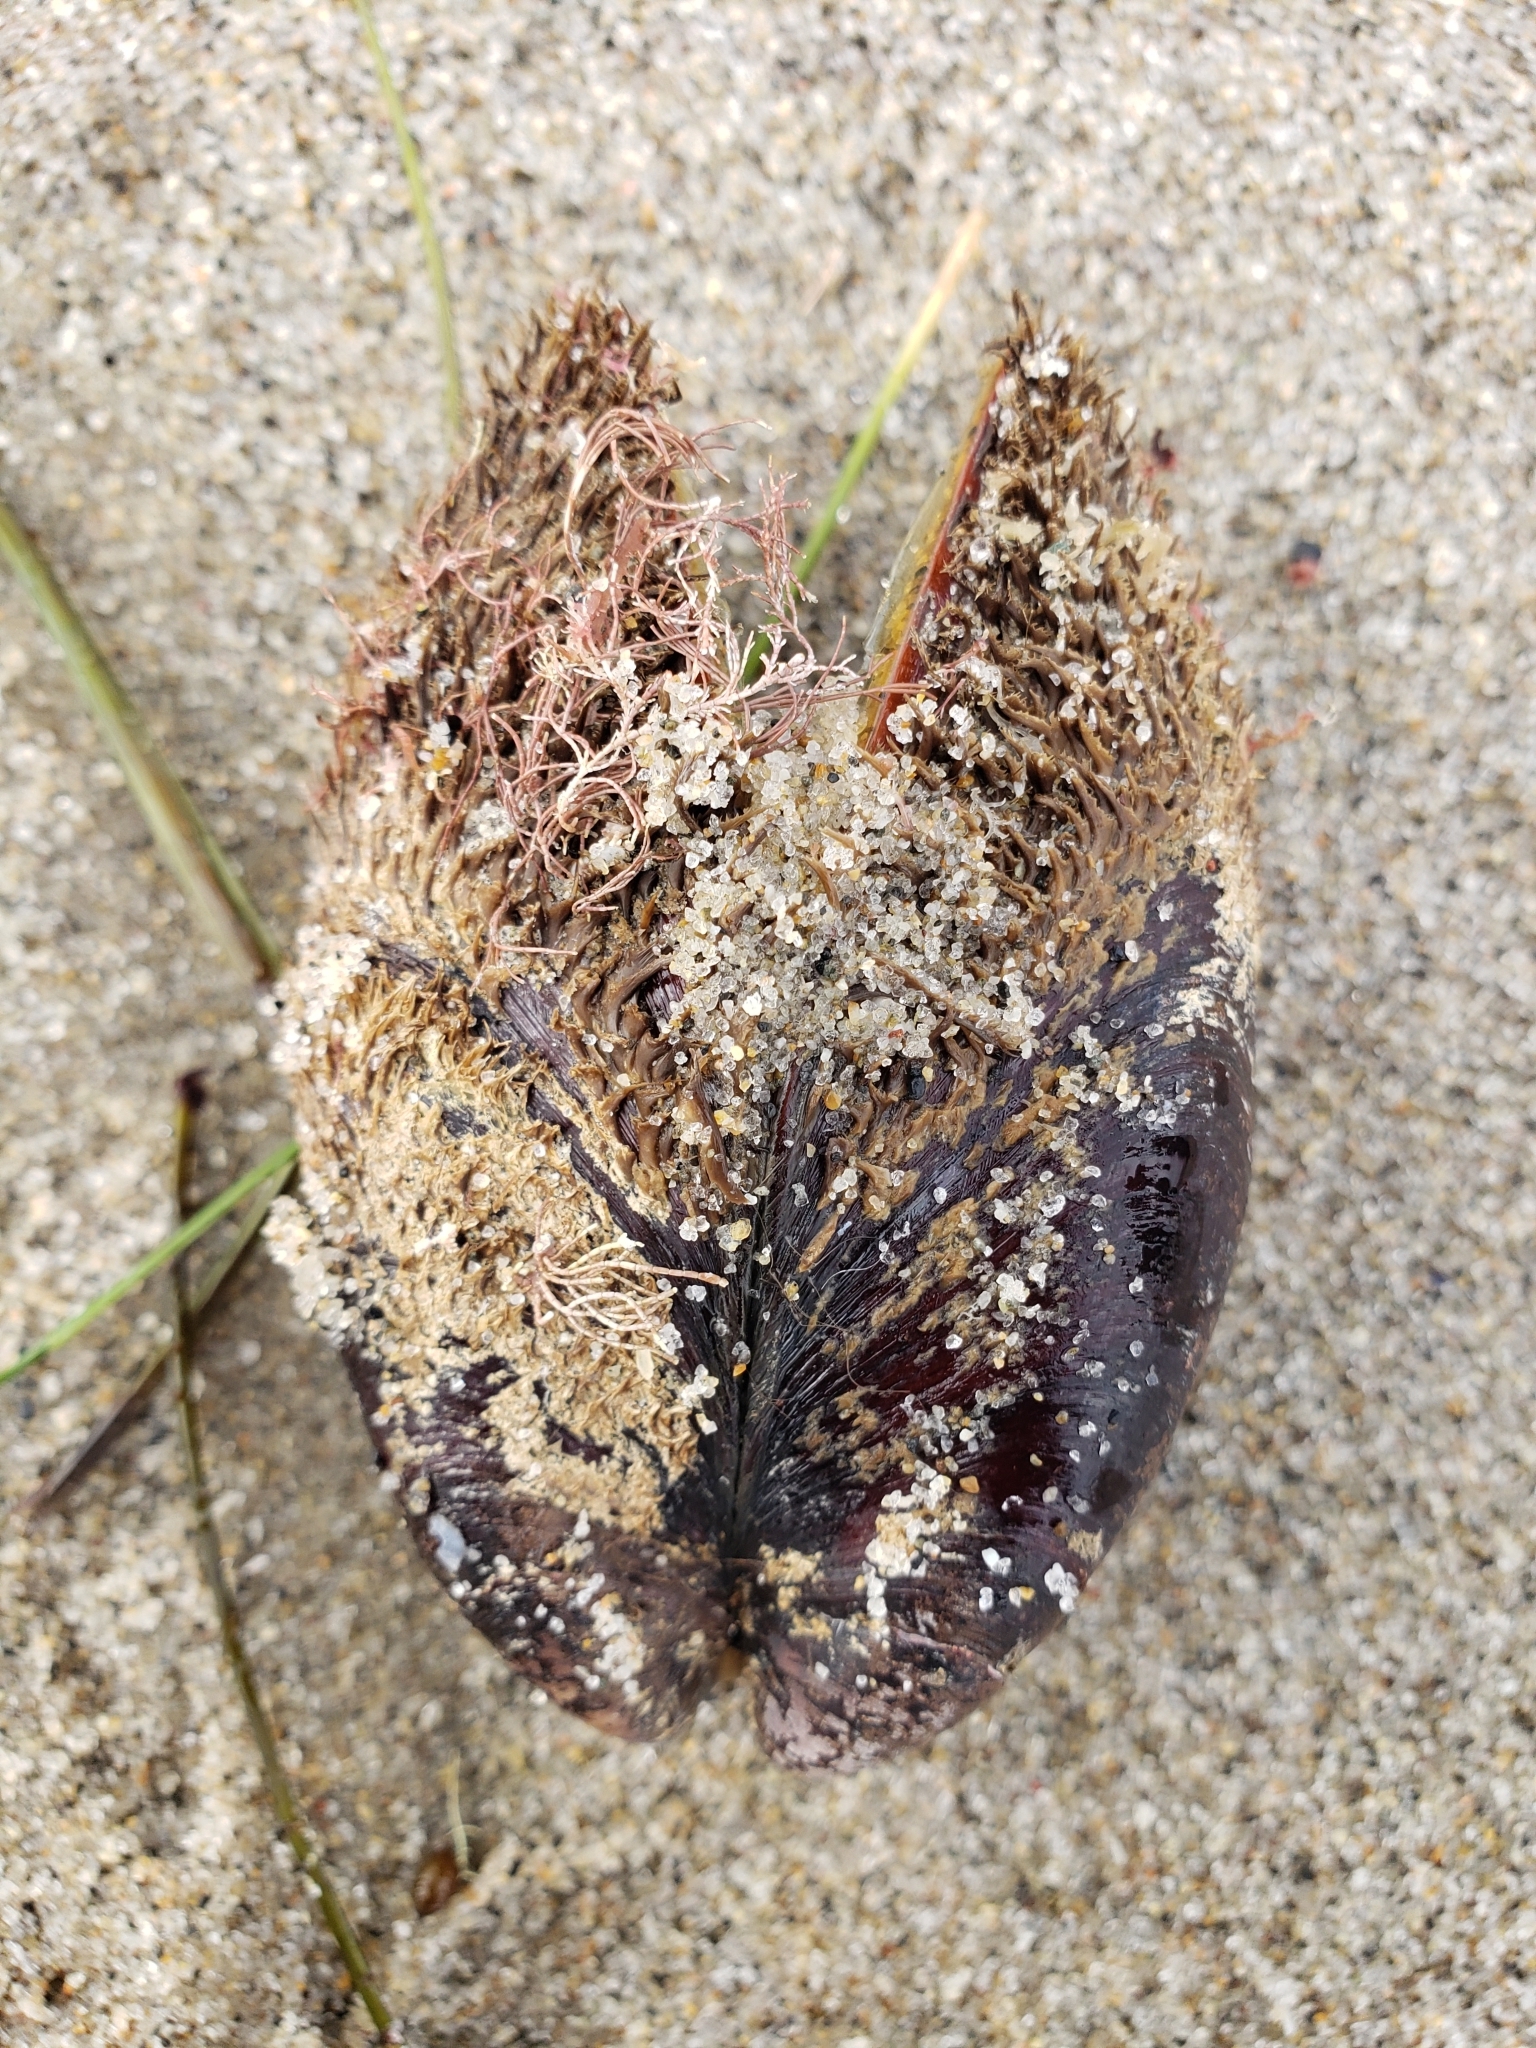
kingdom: Animalia
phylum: Mollusca
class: Bivalvia
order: Mytilida
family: Mytilidae
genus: Modiolus
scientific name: Modiolus capax
